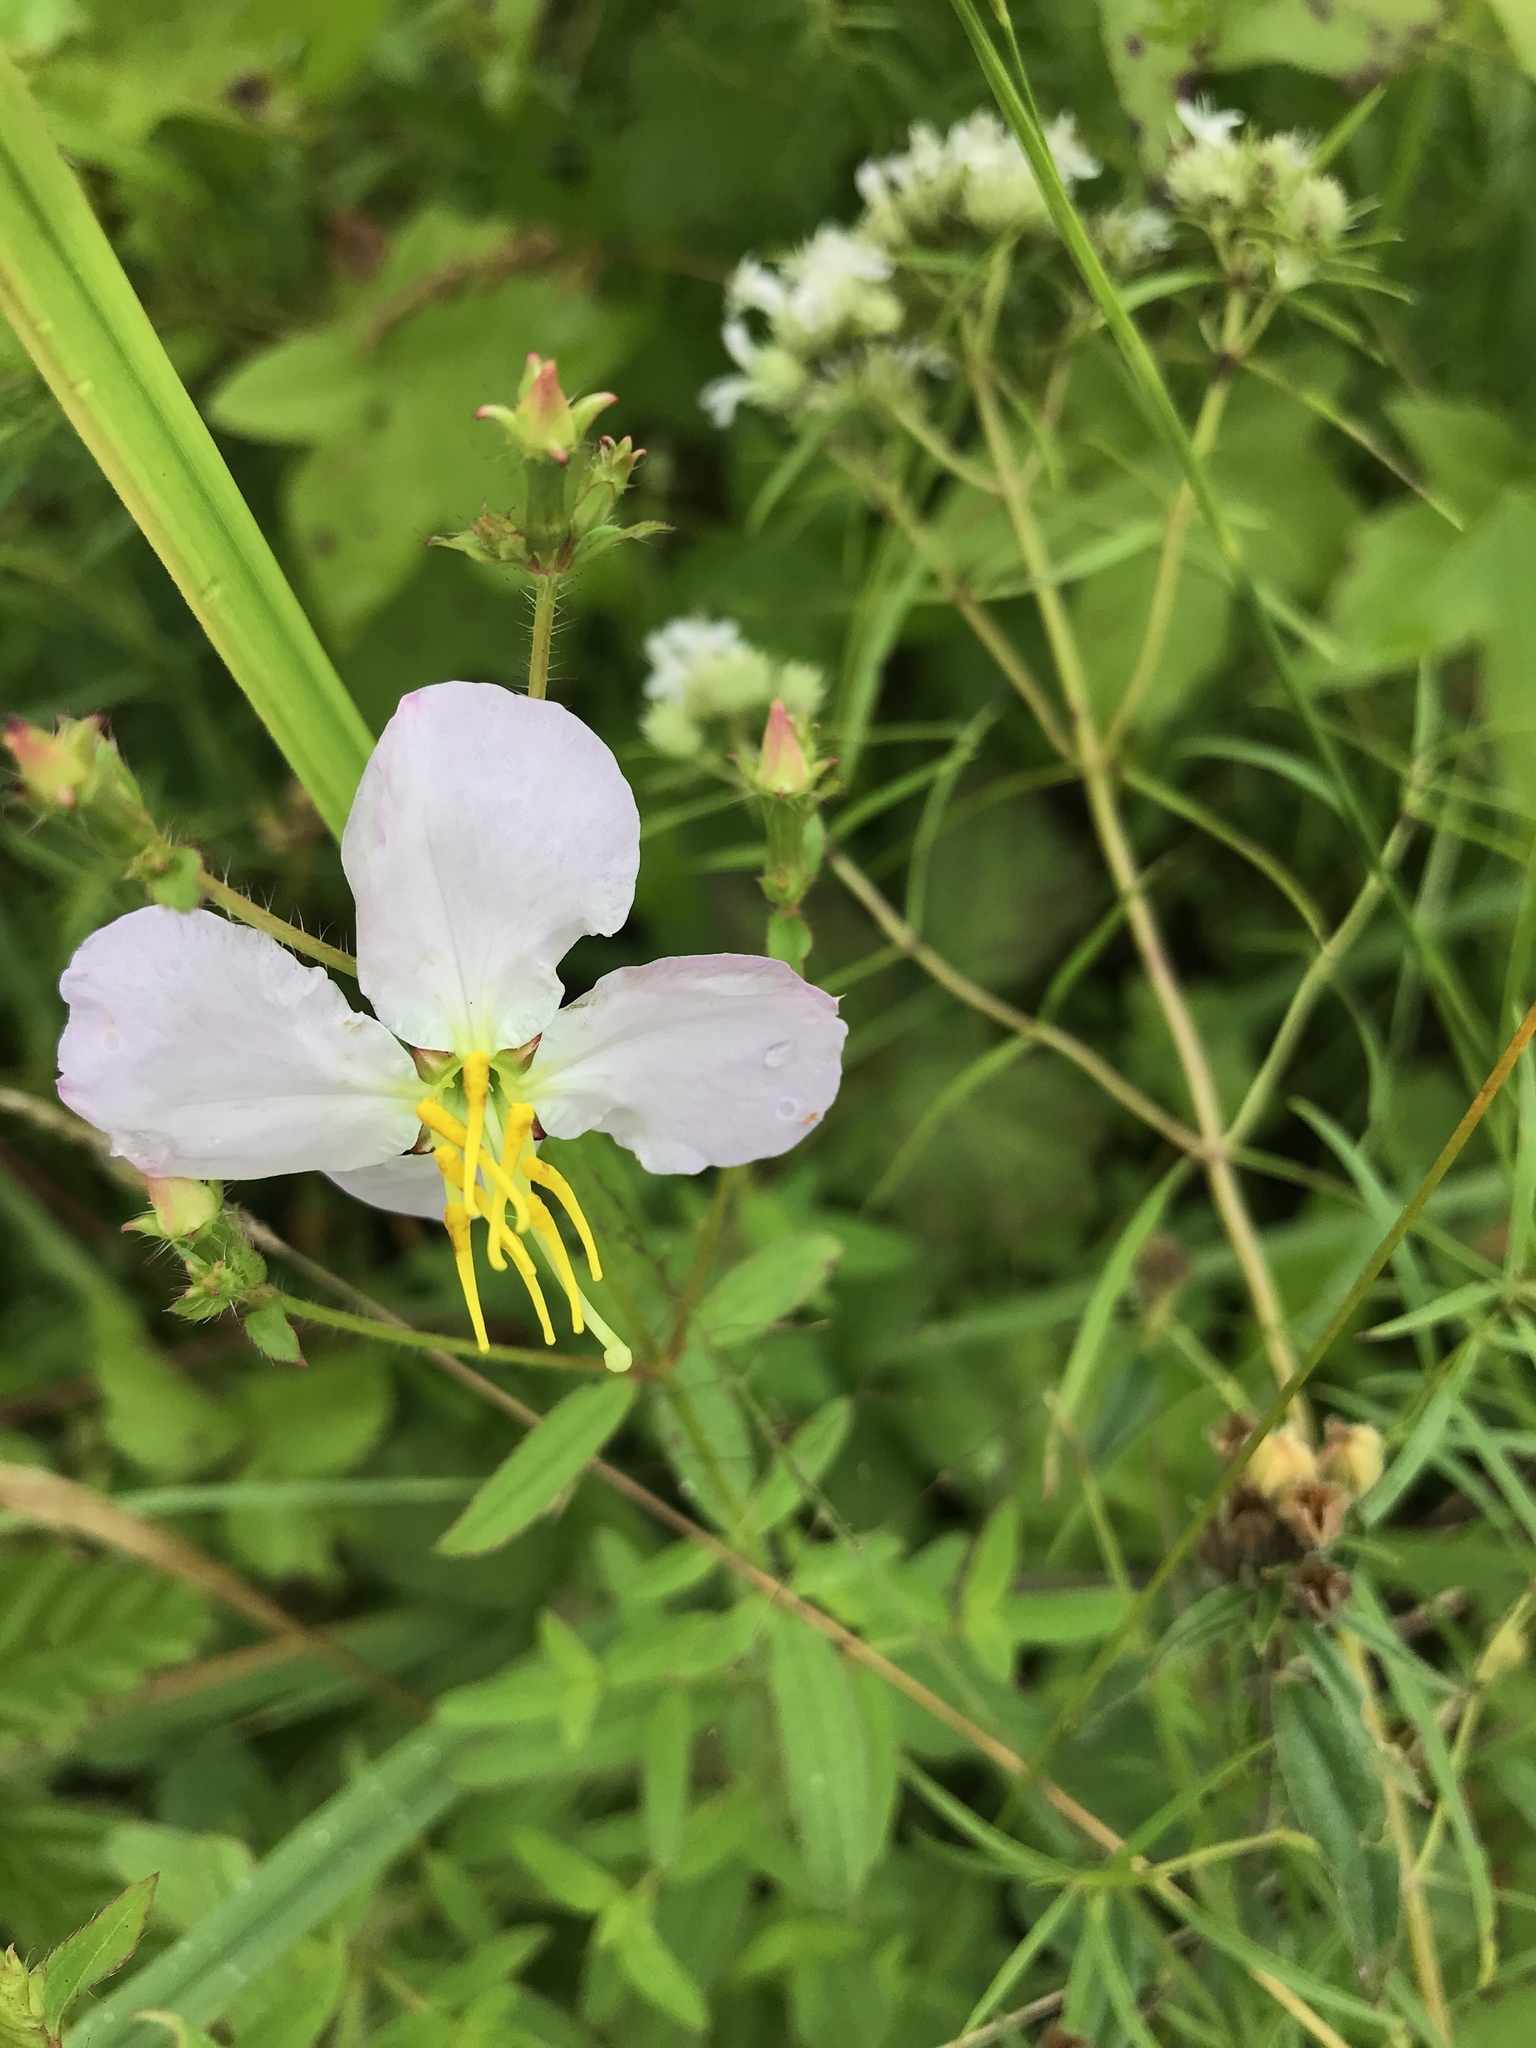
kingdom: Plantae
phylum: Tracheophyta
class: Magnoliopsida
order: Myrtales
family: Melastomataceae
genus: Rhexia
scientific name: Rhexia mariana
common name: Dull meadow-pitcher
